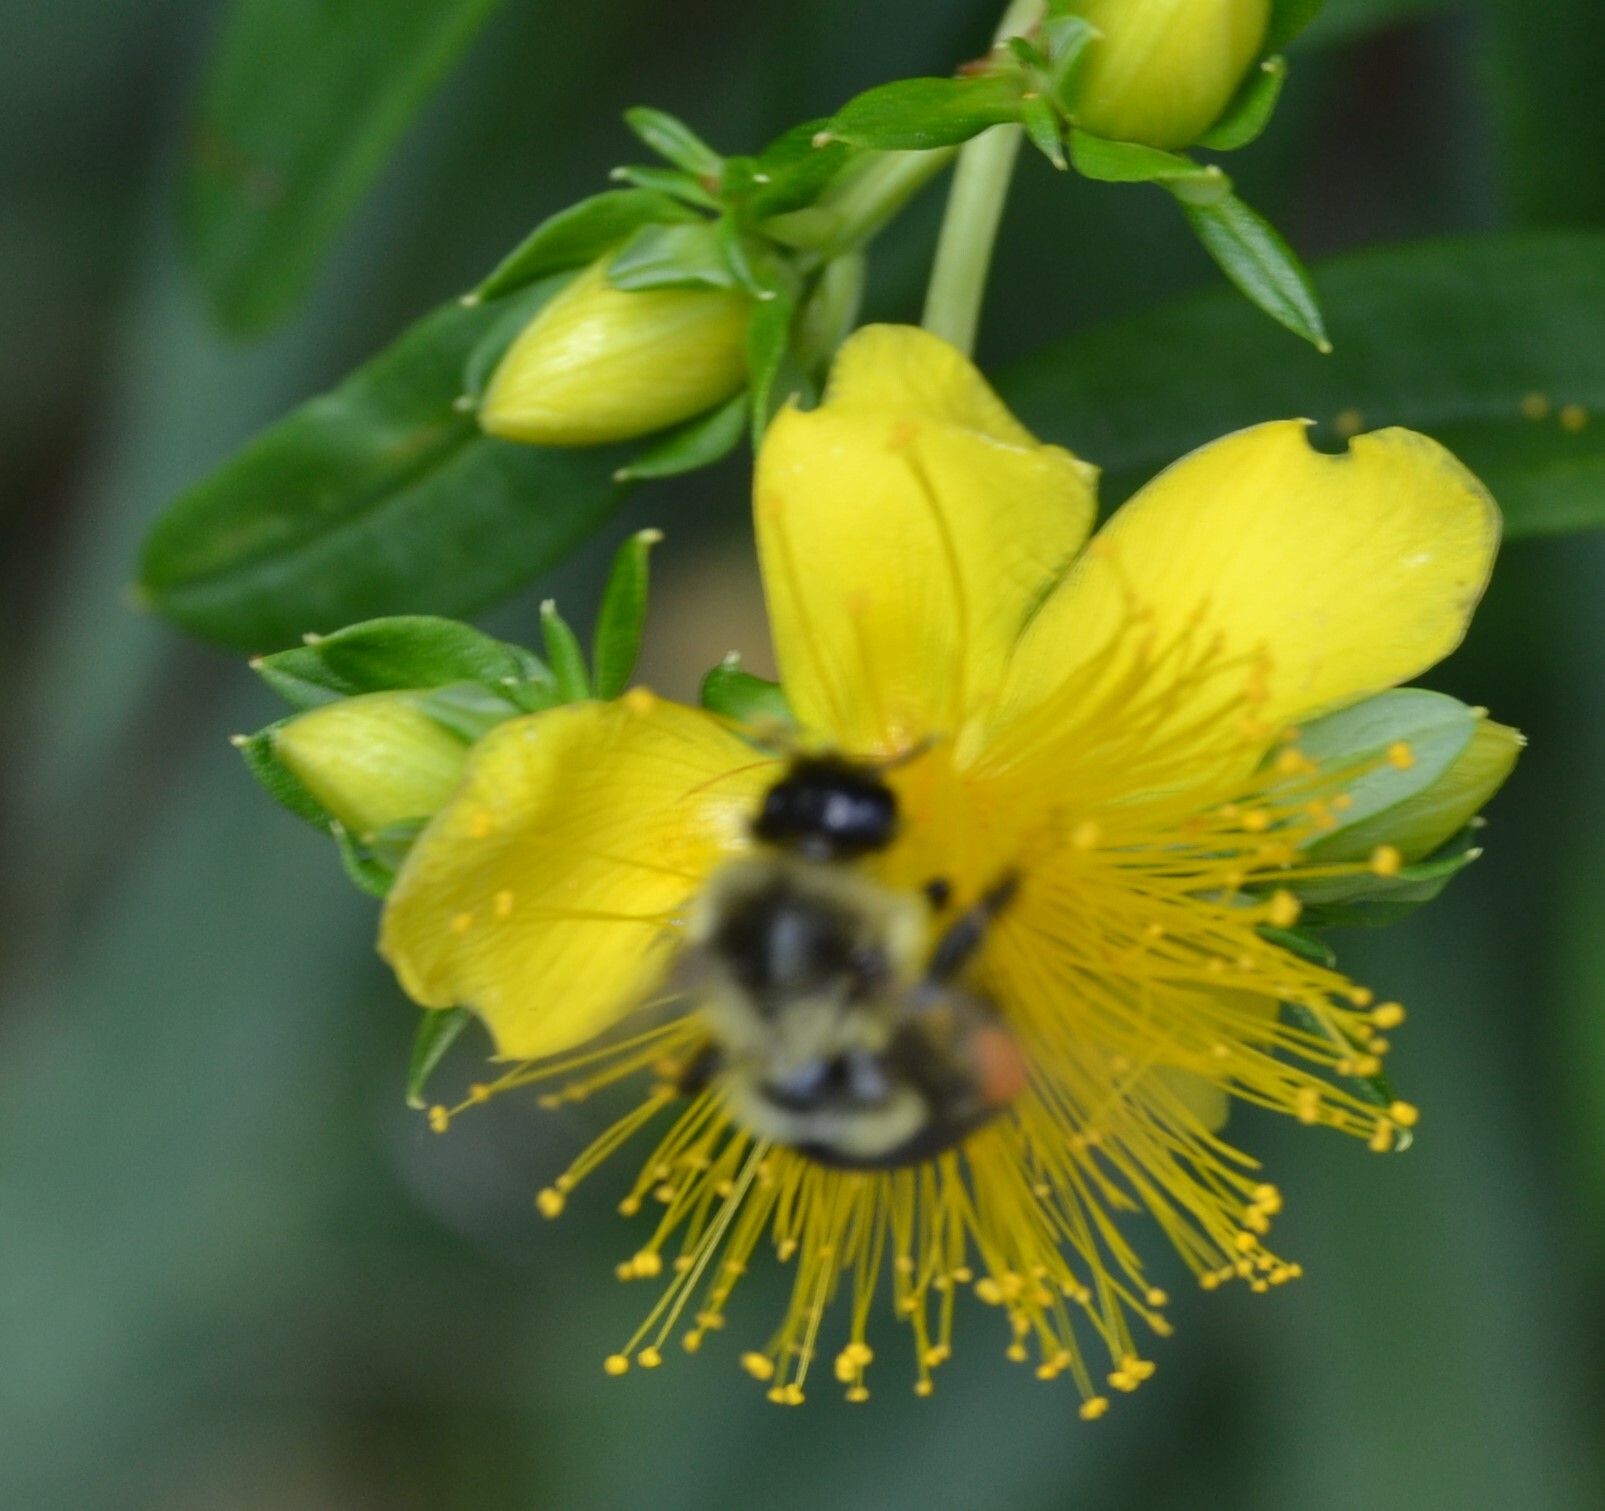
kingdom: Animalia
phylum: Arthropoda
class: Insecta
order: Hymenoptera
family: Apidae
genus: Bombus
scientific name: Bombus impatiens
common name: Common eastern bumble bee
